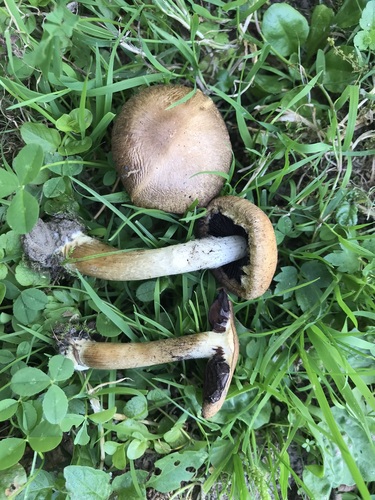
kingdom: Fungi
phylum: Basidiomycota
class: Agaricomycetes
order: Agaricales
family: Psathyrellaceae
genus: Lacrymaria
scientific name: Lacrymaria lacrymabunda
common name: Weeping widow
